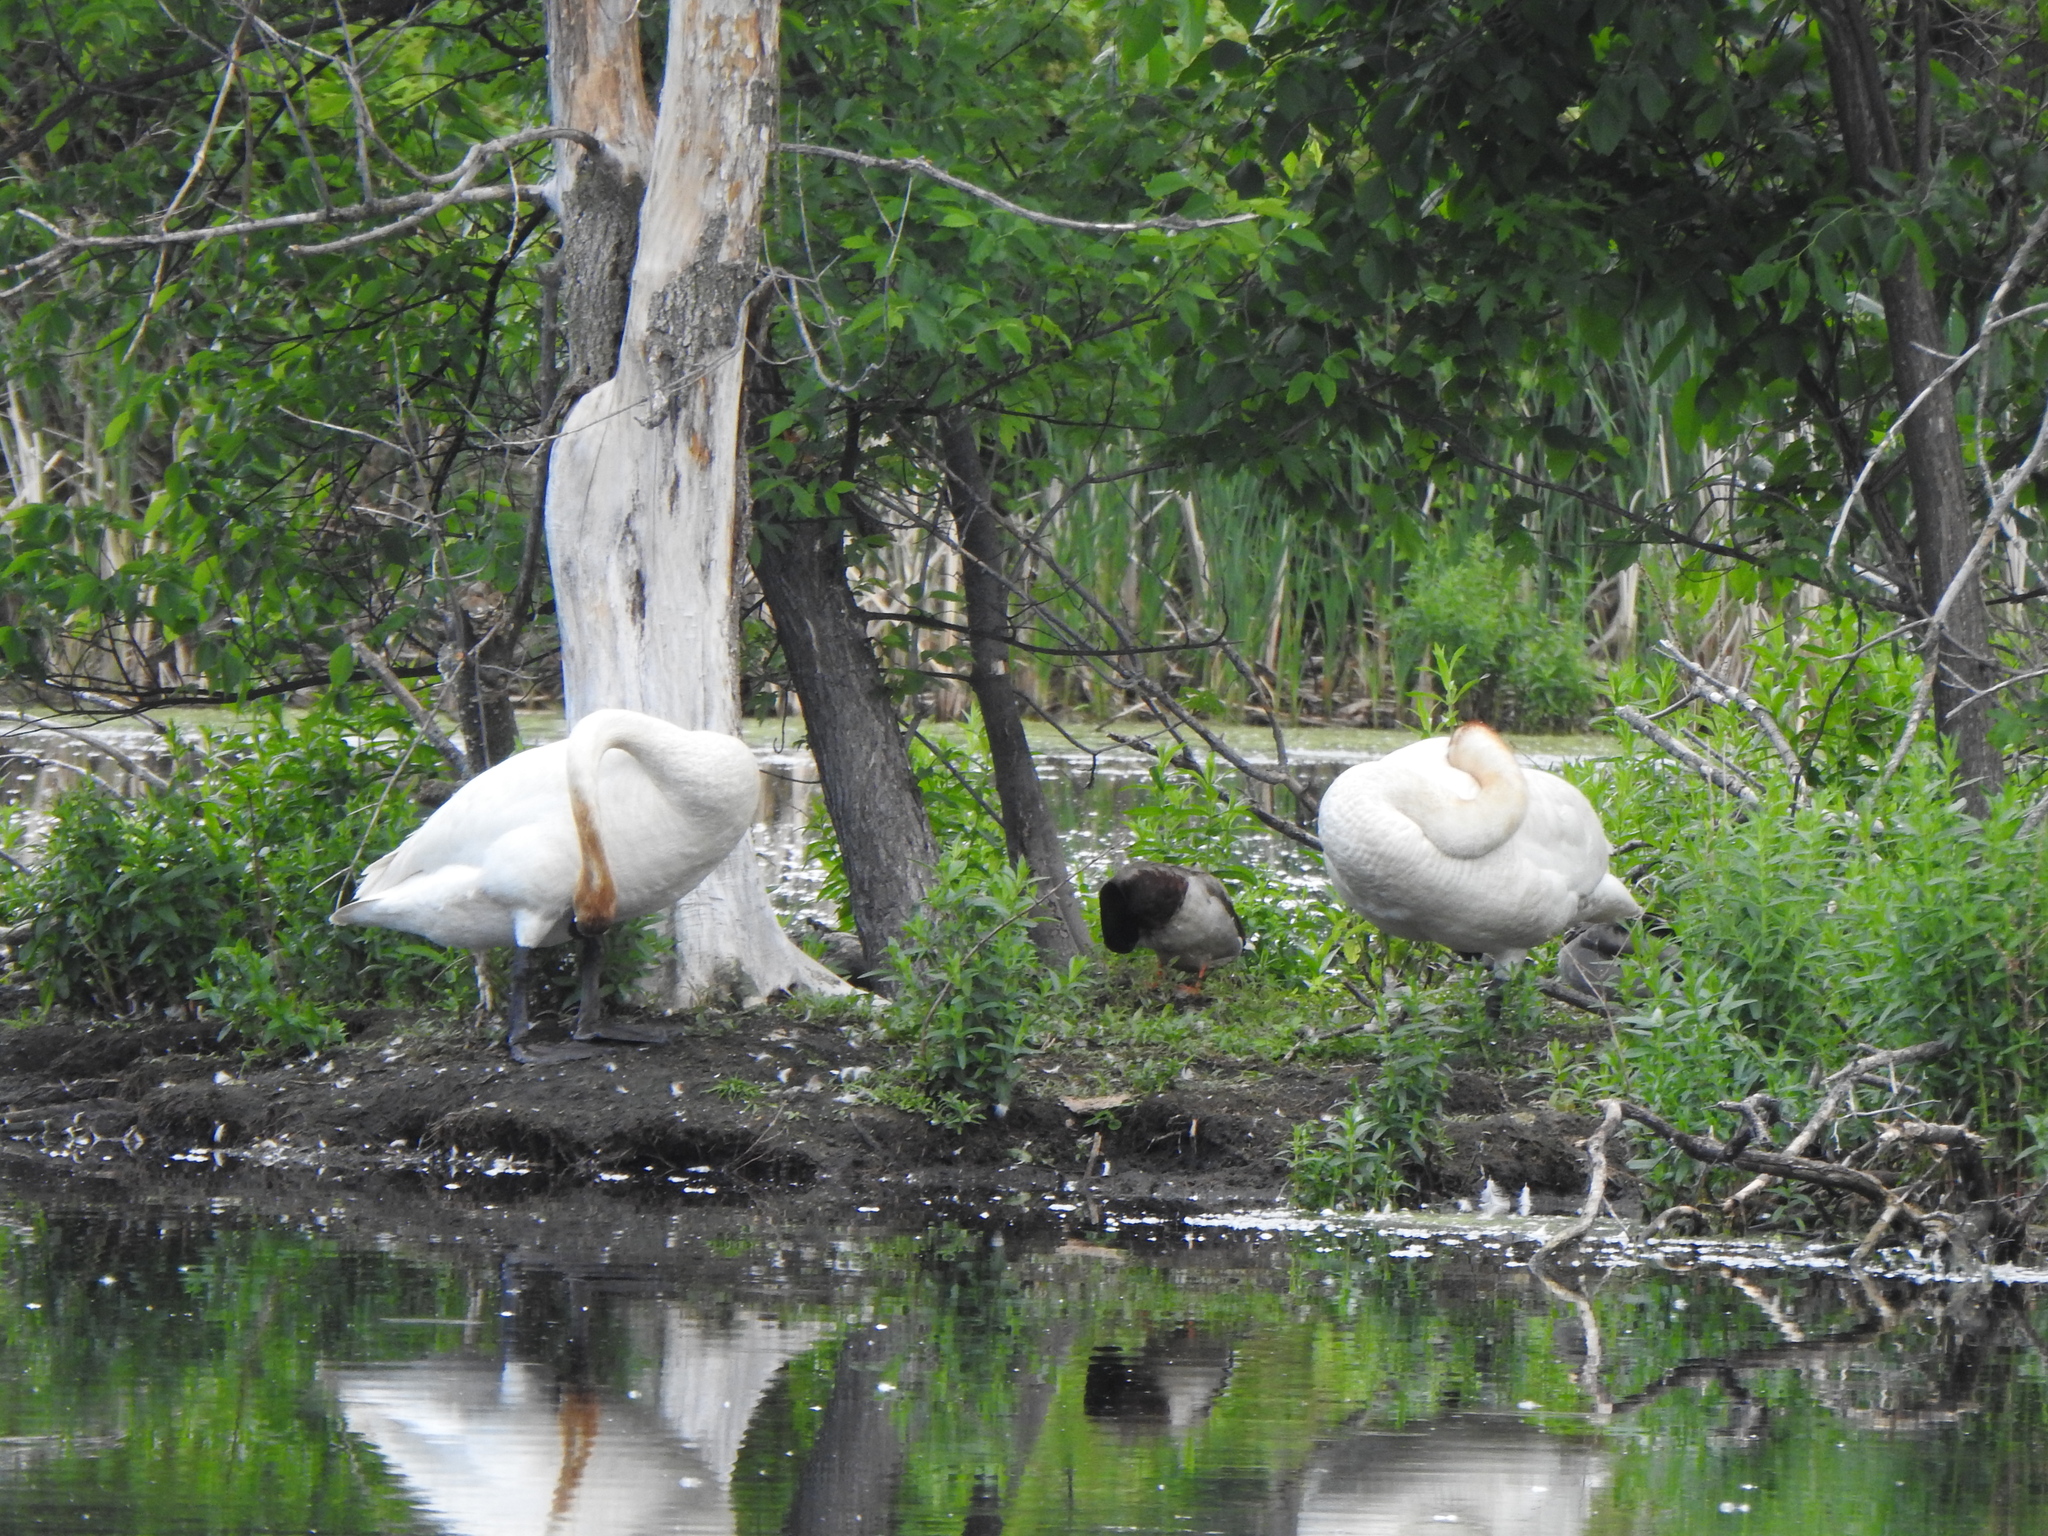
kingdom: Animalia
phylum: Chordata
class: Aves
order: Anseriformes
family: Anatidae
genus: Cygnus
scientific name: Cygnus buccinator
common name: Trumpeter swan
